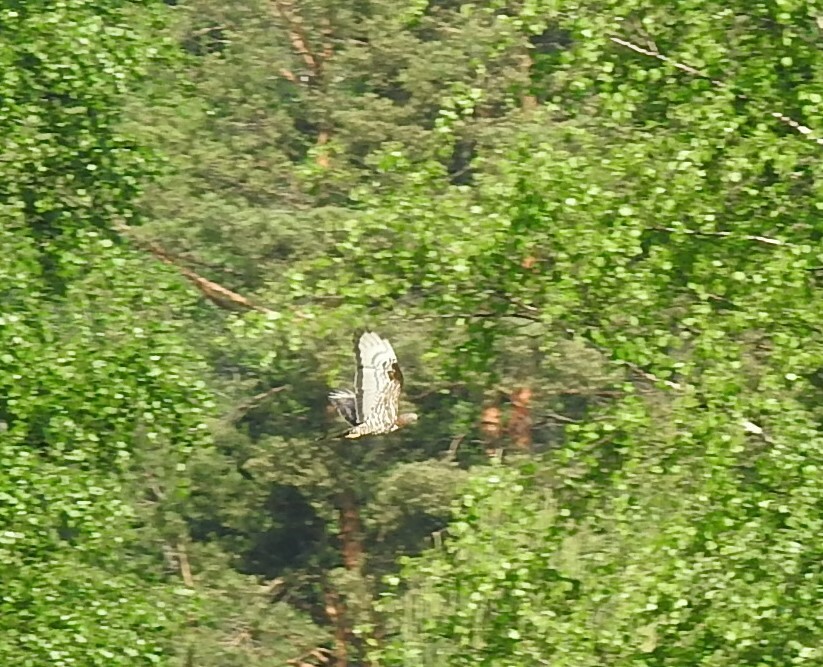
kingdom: Animalia
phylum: Chordata
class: Aves
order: Accipitriformes
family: Accipitridae
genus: Pernis
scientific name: Pernis apivorus
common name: European honey buzzard
